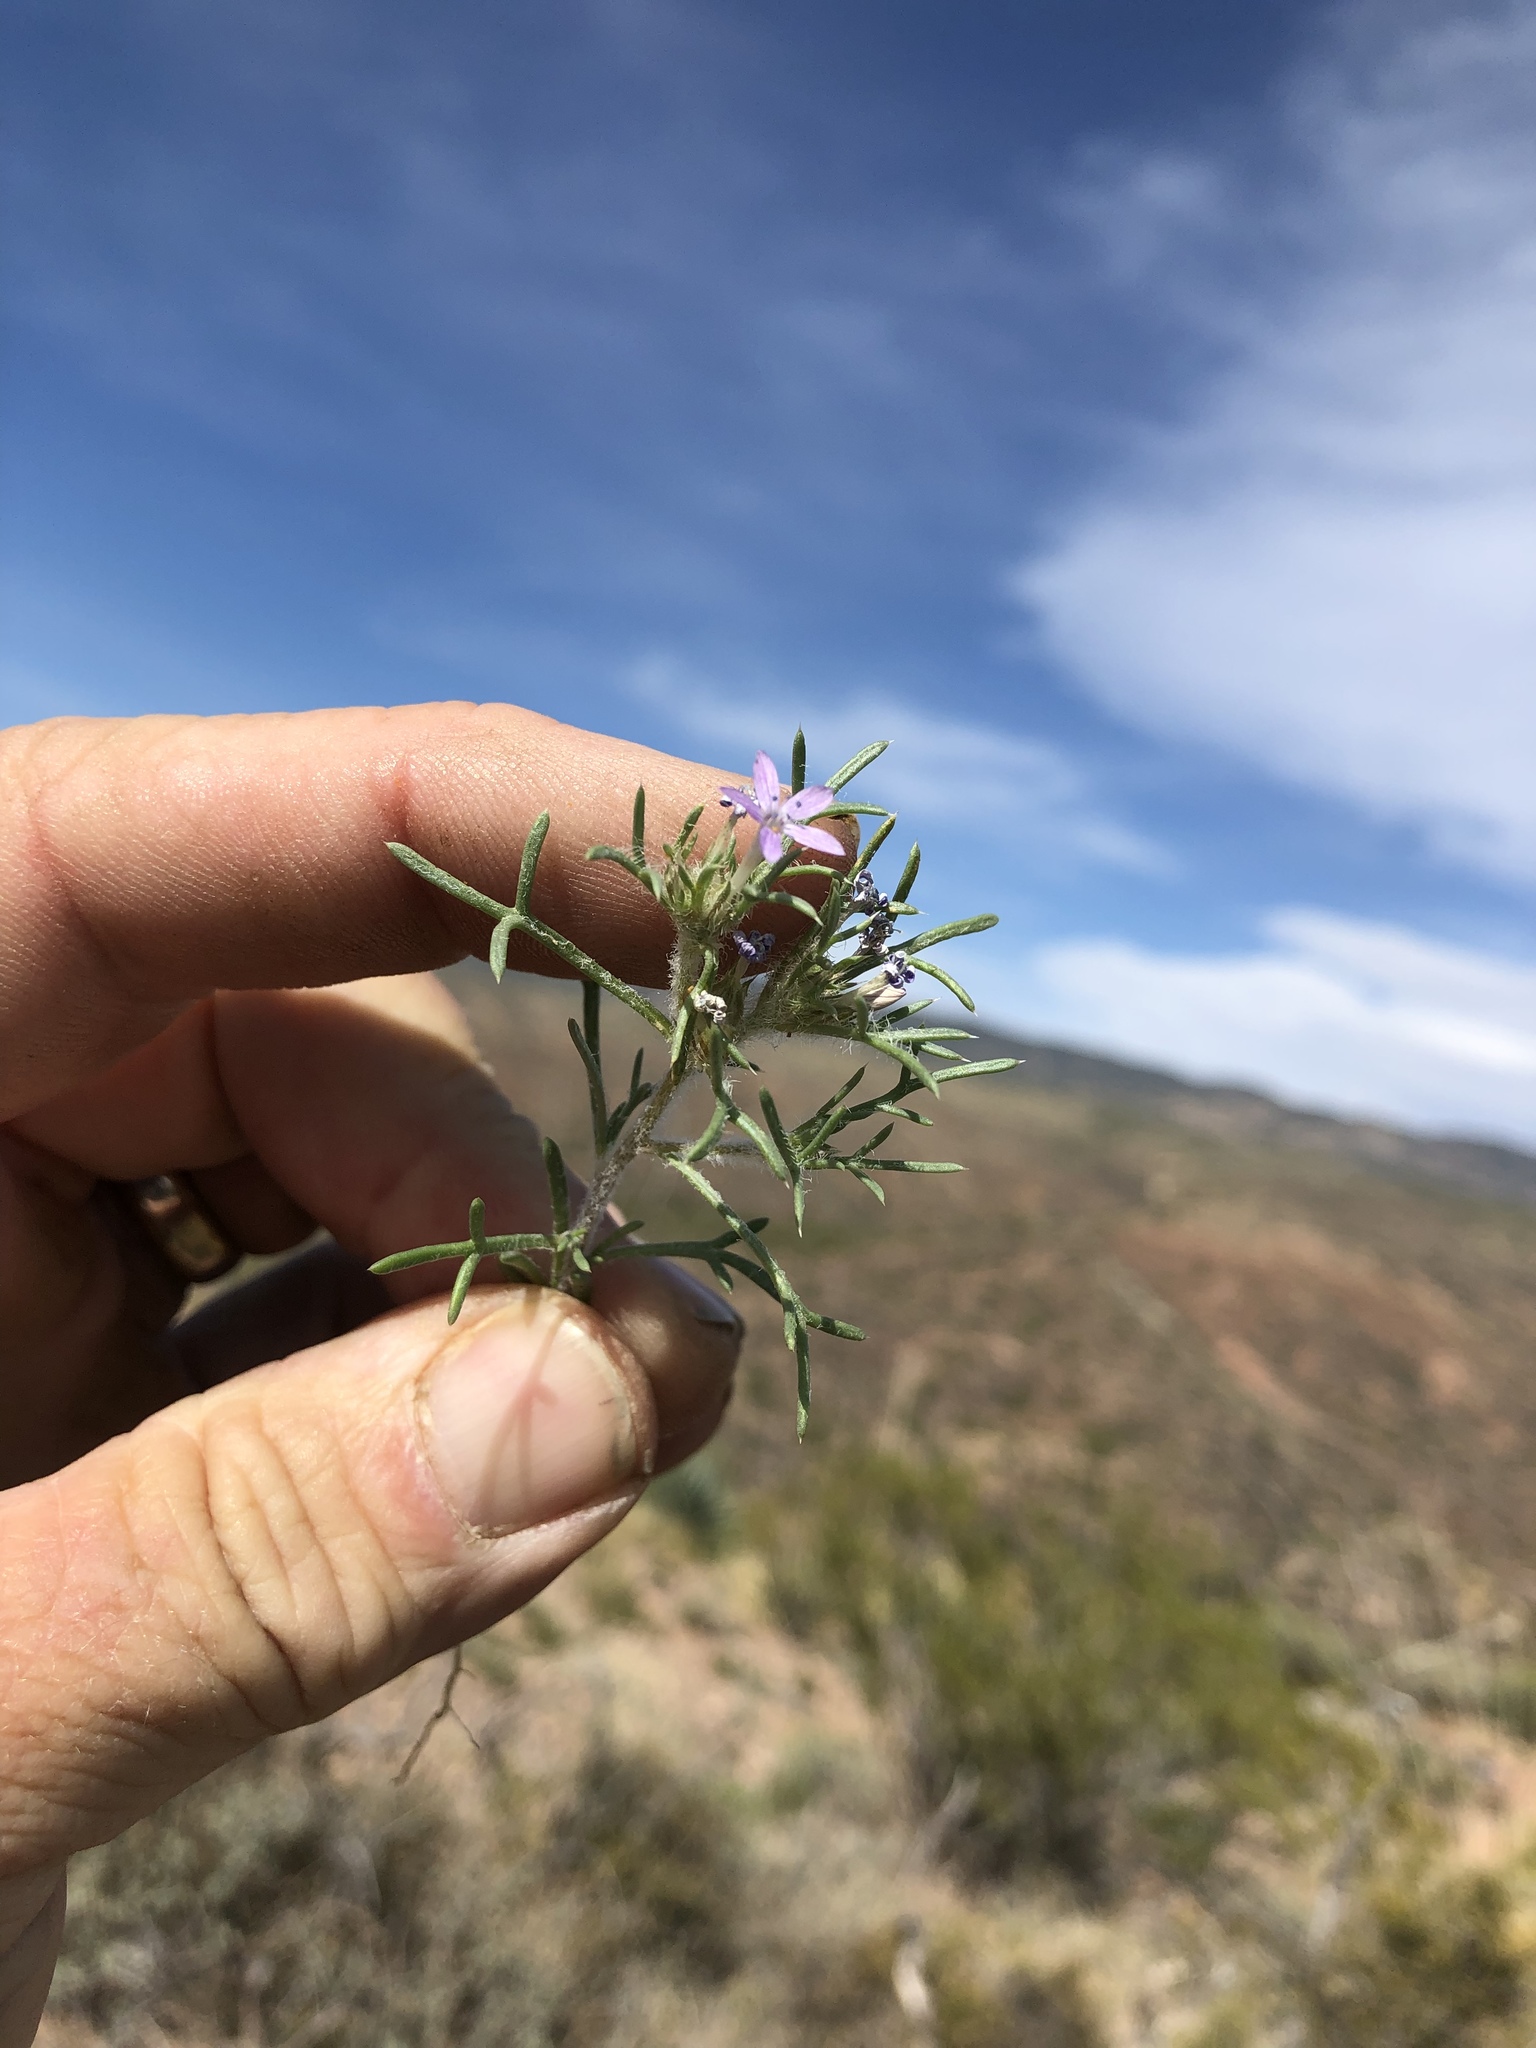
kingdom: Plantae
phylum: Tracheophyta
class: Magnoliopsida
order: Ericales
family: Polemoniaceae
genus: Ipomopsis
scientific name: Ipomopsis pumila
